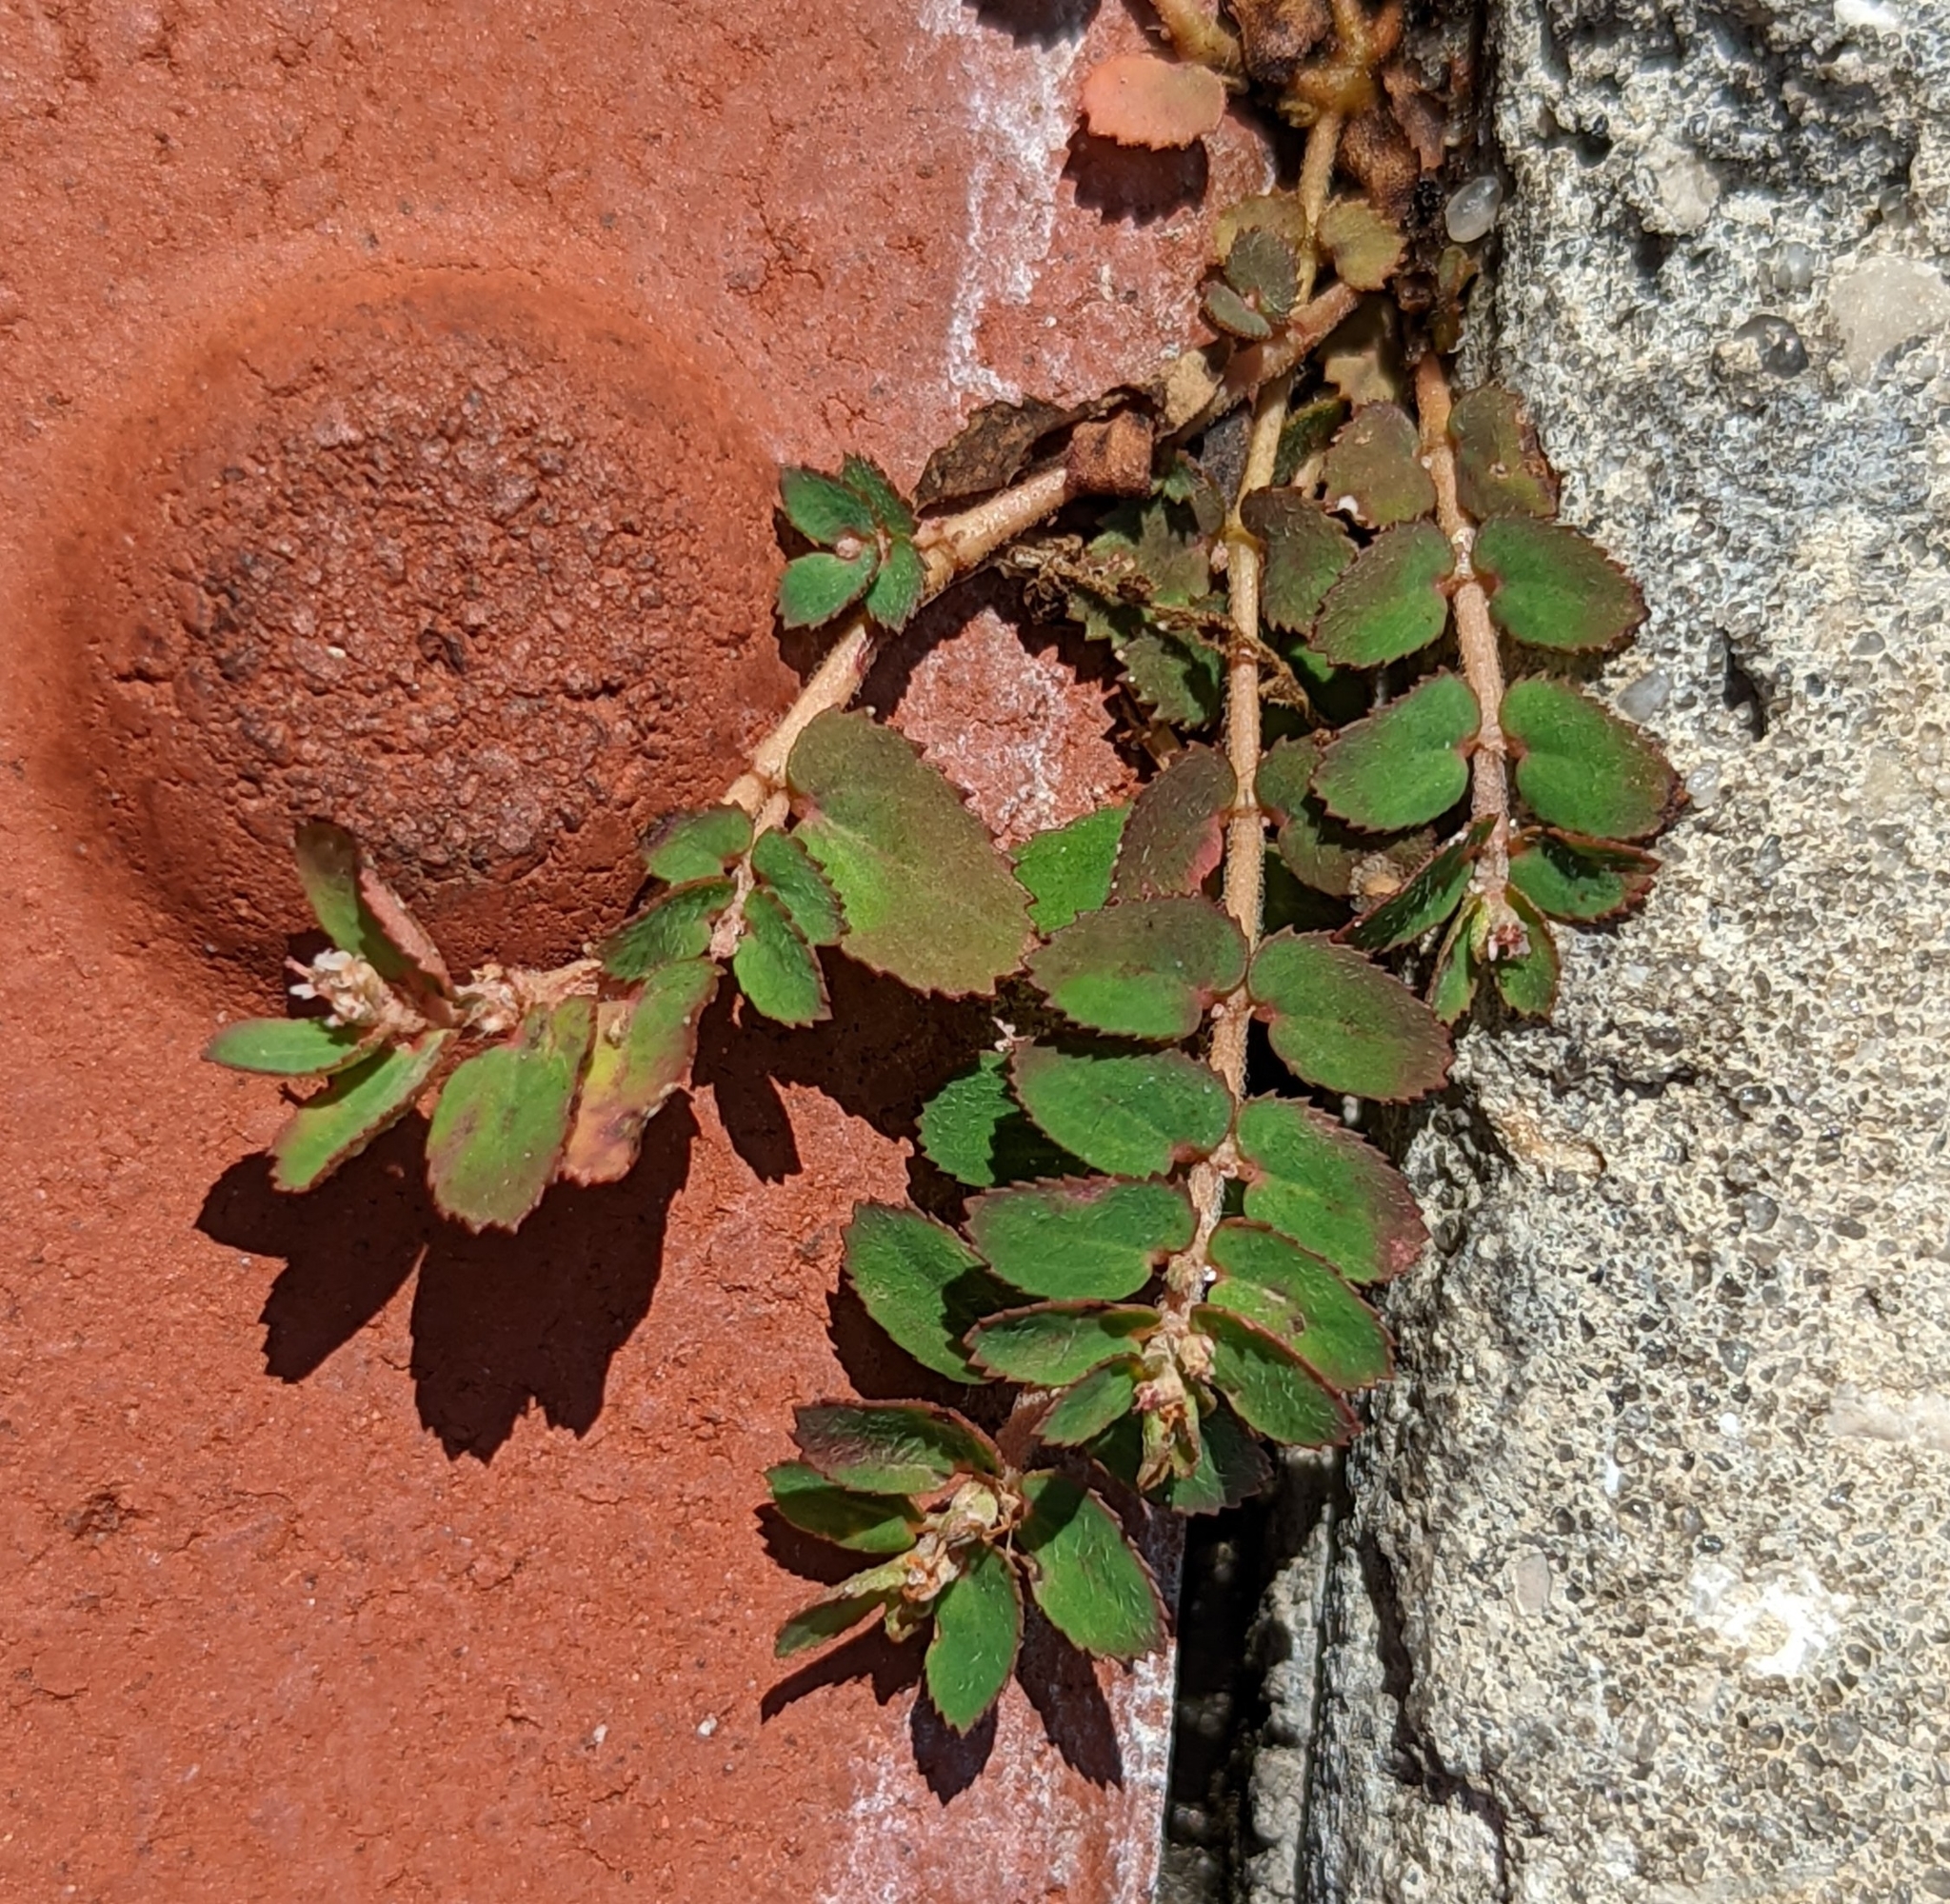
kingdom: Plantae
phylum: Tracheophyta
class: Magnoliopsida
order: Malpighiales
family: Euphorbiaceae
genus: Euphorbia
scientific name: Euphorbia thymifolia
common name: Gulf sandmat
